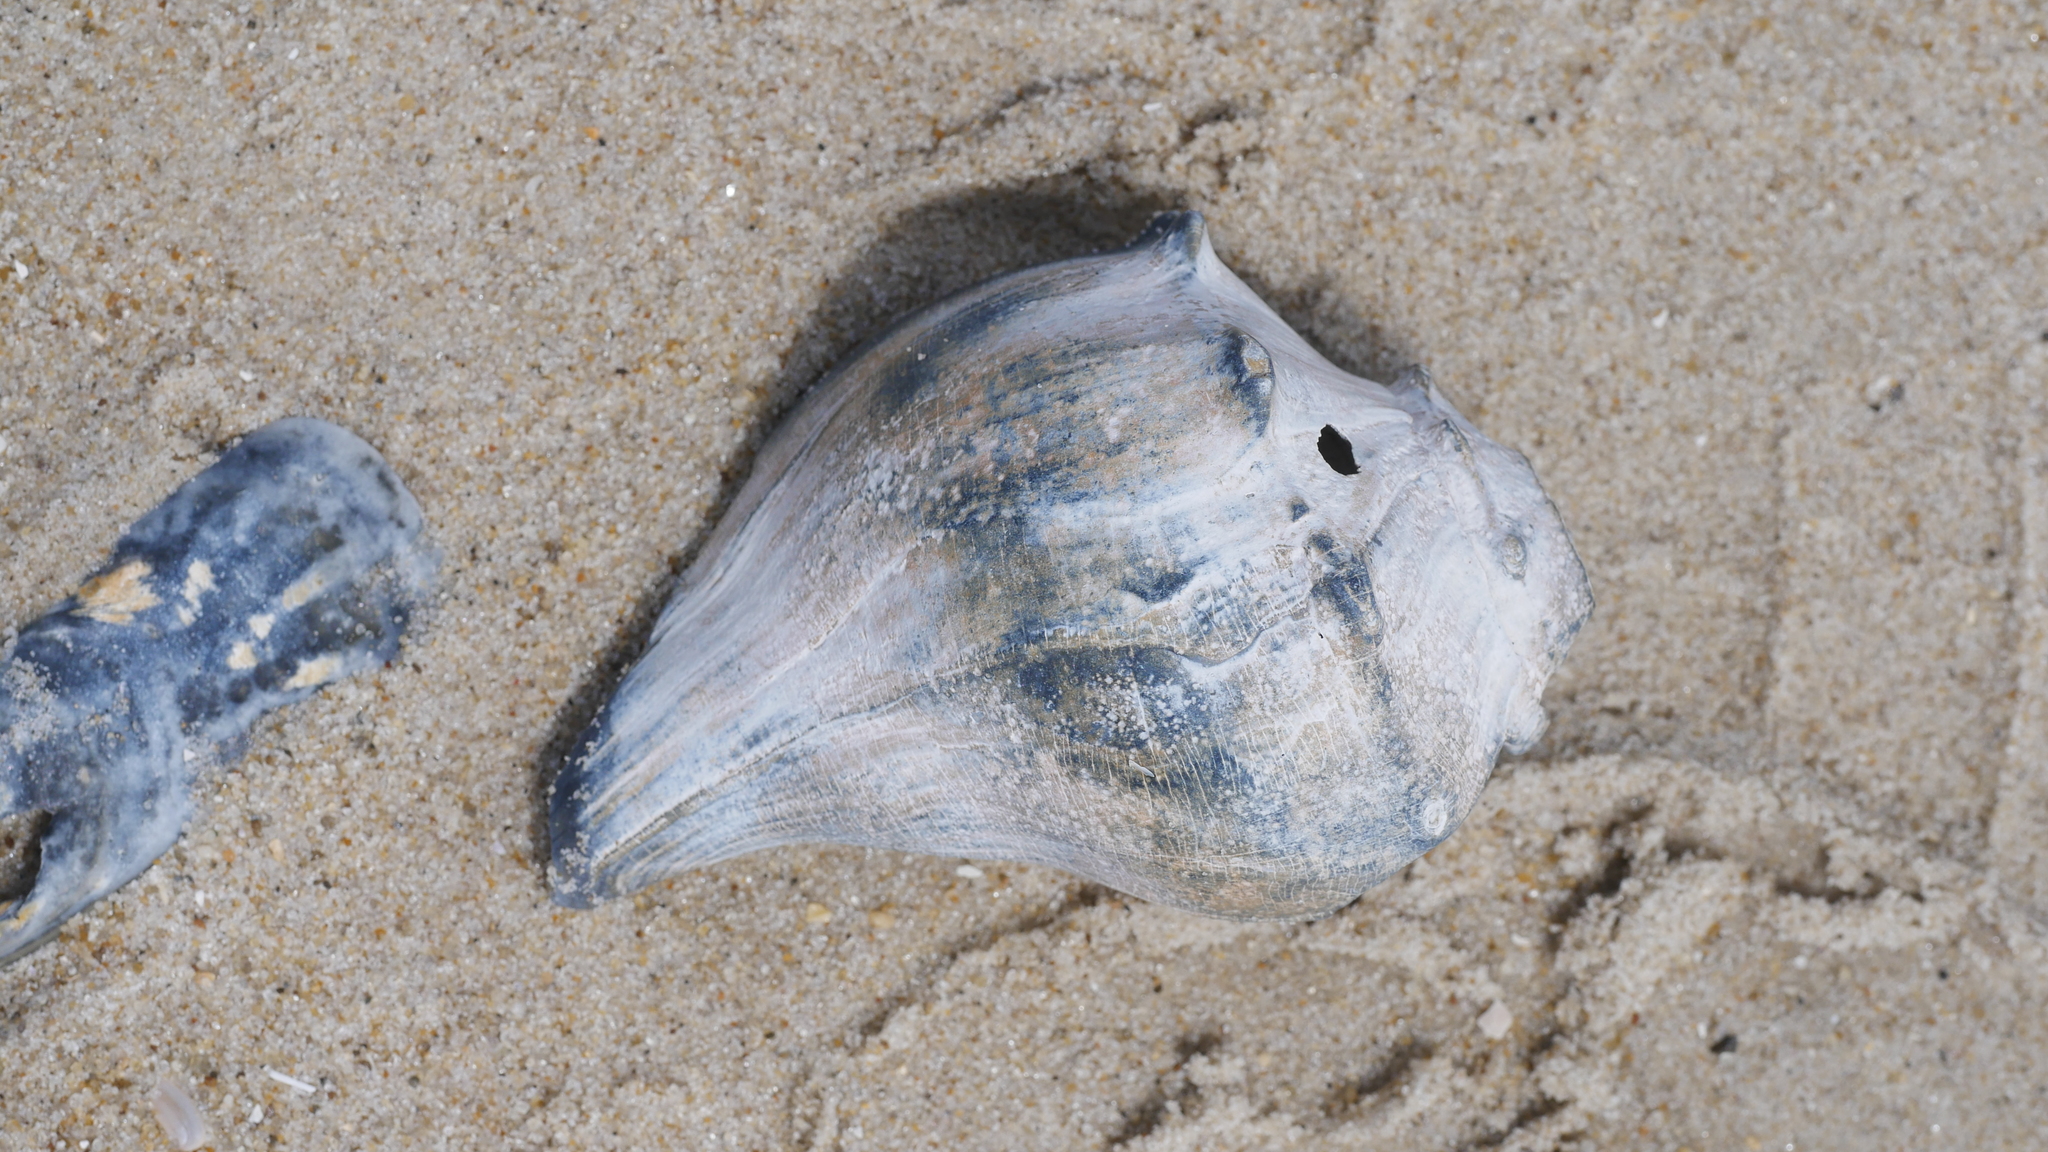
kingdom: Animalia
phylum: Mollusca
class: Gastropoda
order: Neogastropoda
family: Busyconidae
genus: Busycon
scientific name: Busycon carica
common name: Knobbed whelk
